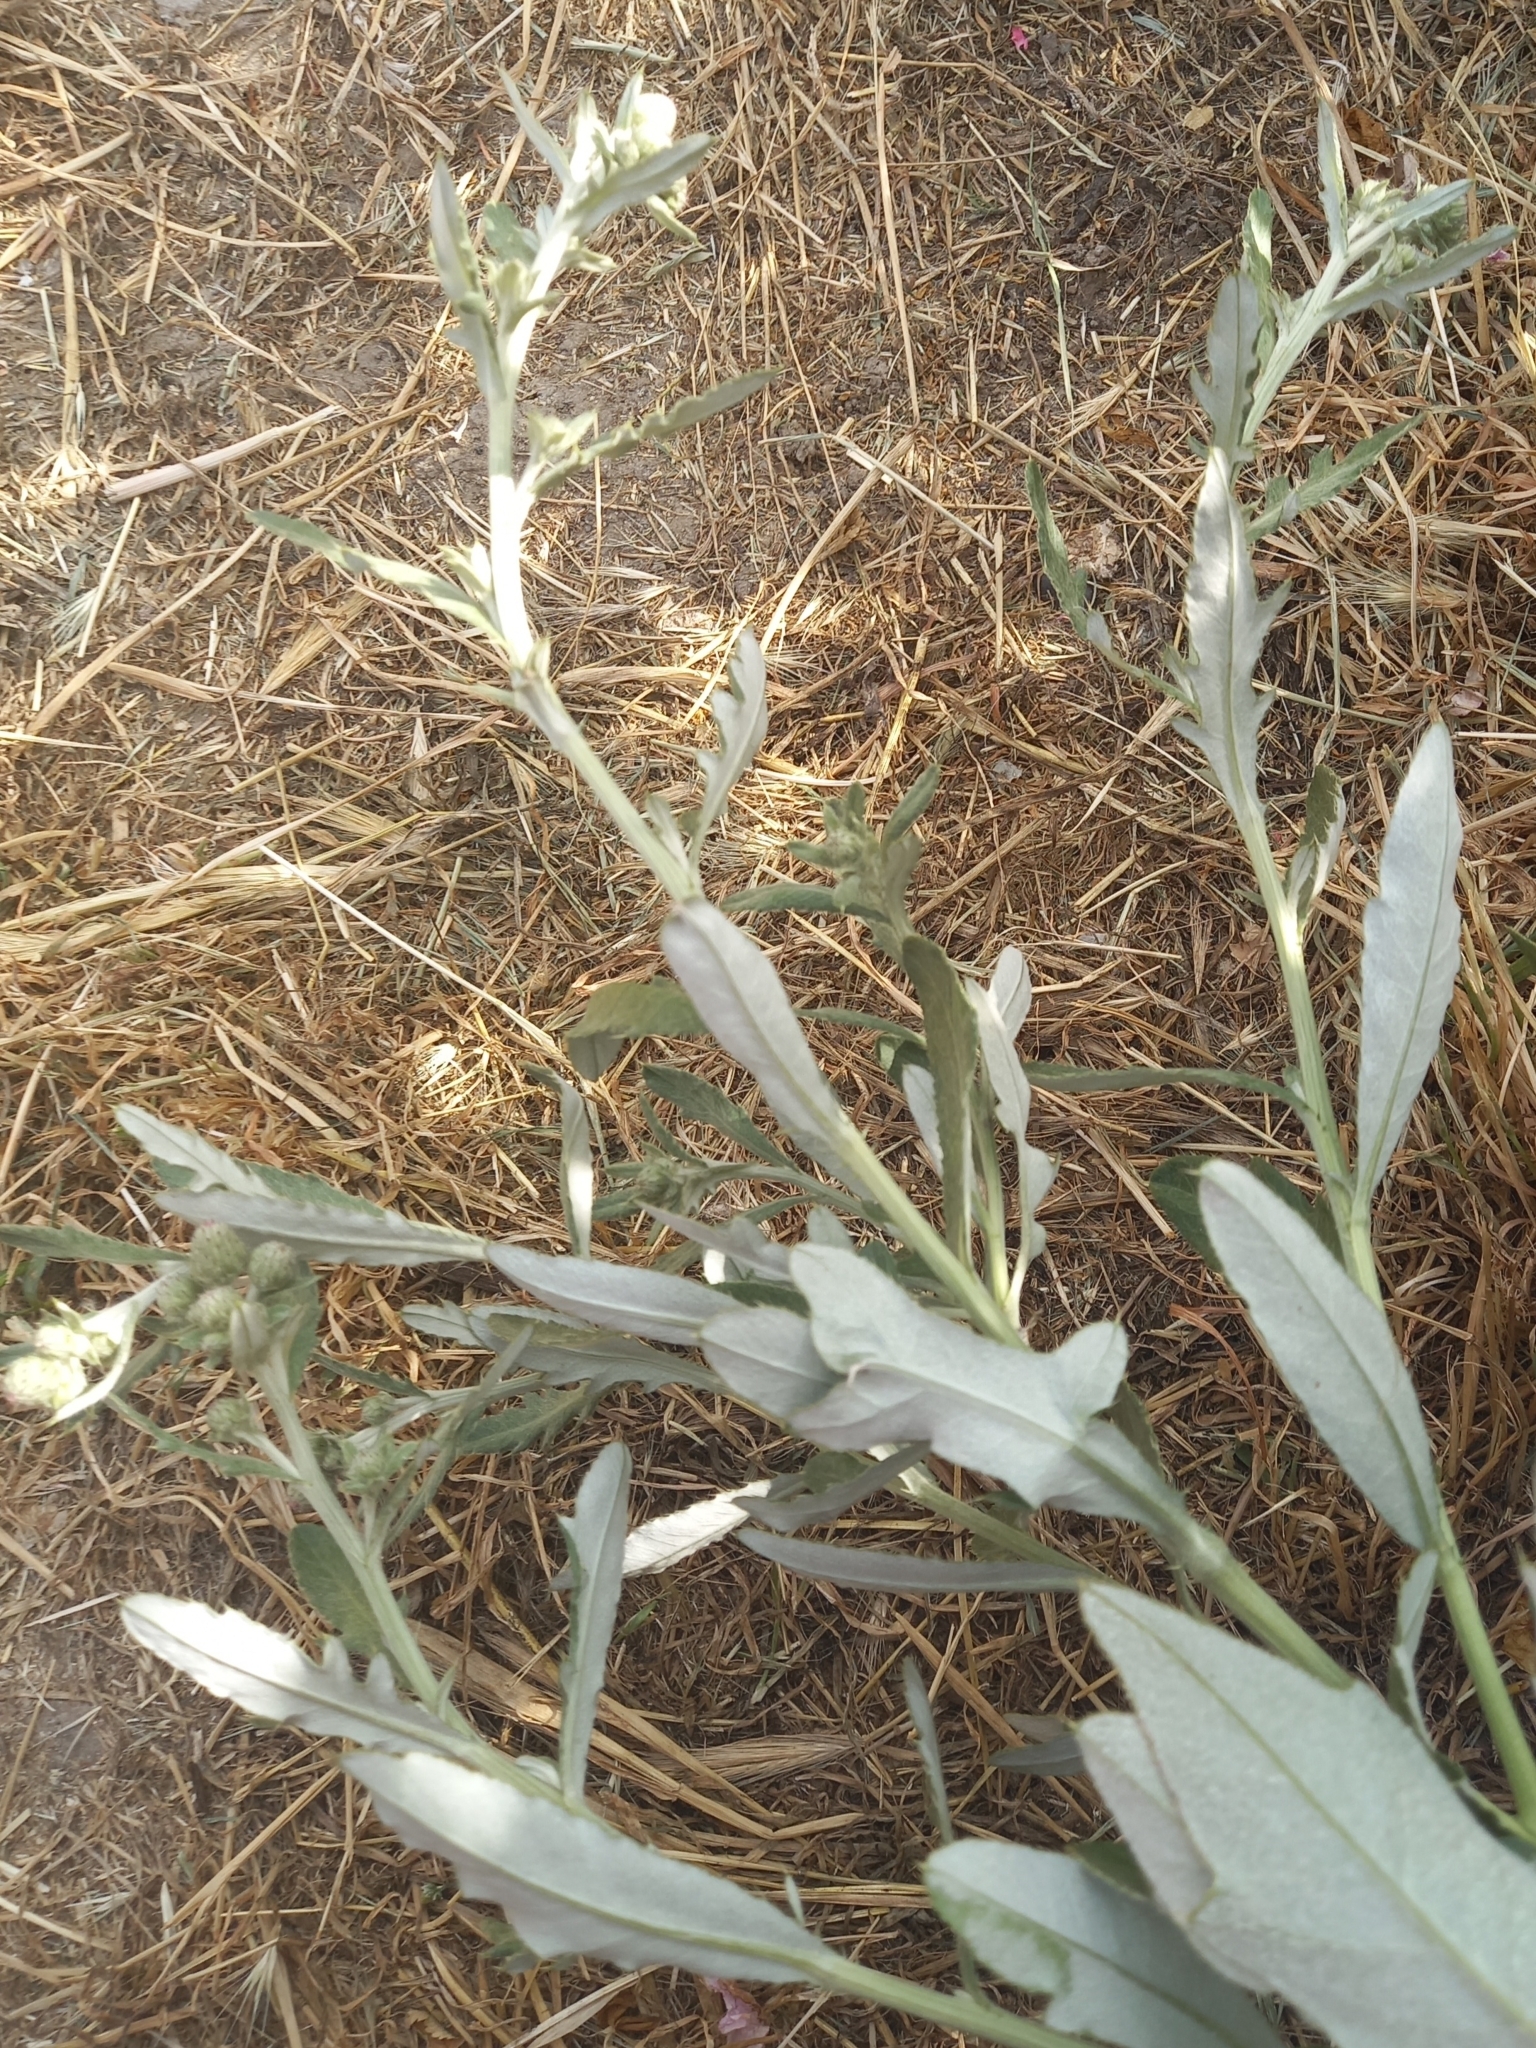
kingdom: Plantae
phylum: Tracheophyta
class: Magnoliopsida
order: Asterales
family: Asteraceae
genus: Cirsium
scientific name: Cirsium arvense
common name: Creeping thistle
